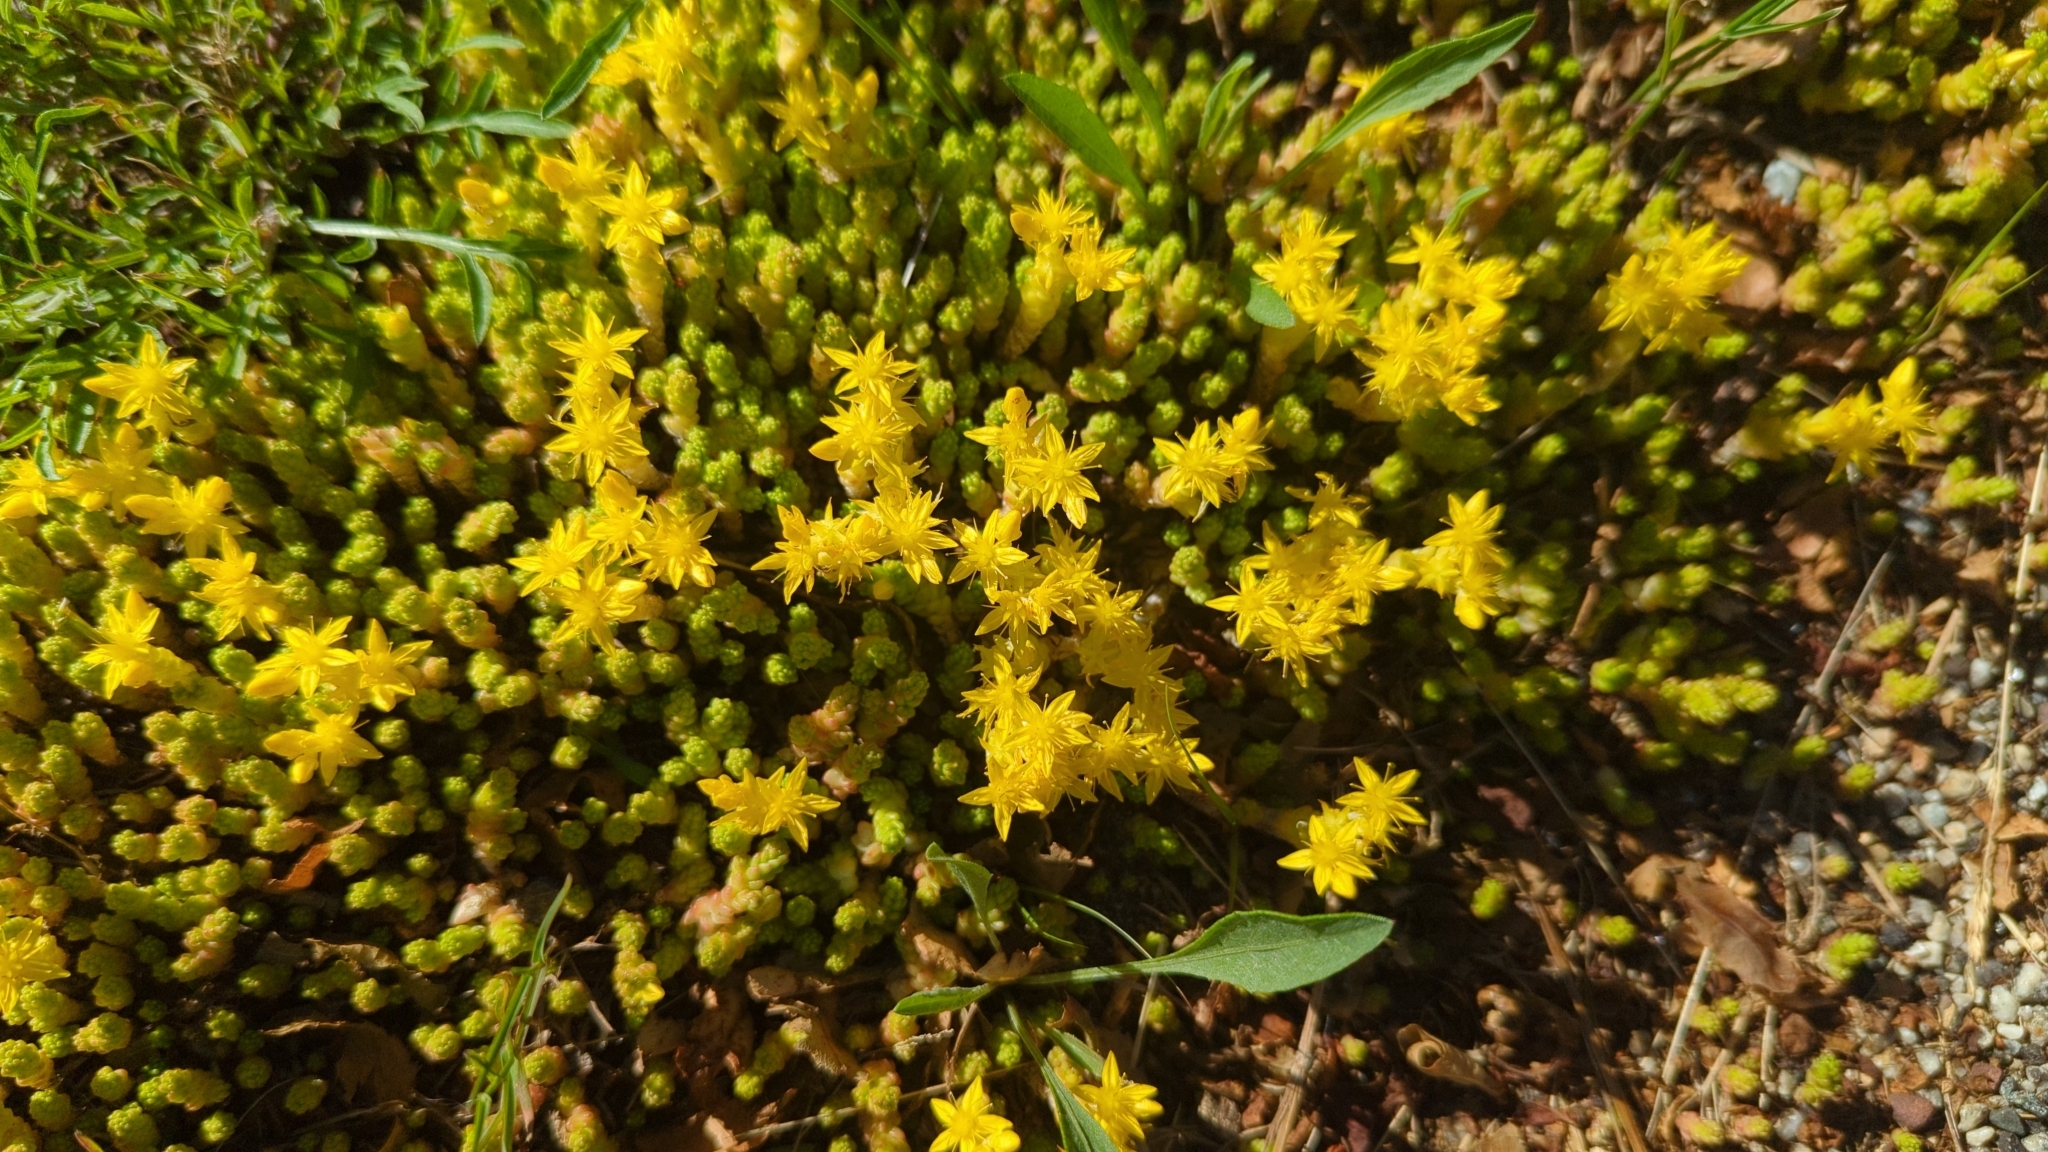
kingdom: Plantae
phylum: Tracheophyta
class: Magnoliopsida
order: Saxifragales
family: Crassulaceae
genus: Sedum
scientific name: Sedum acre
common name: Biting stonecrop
